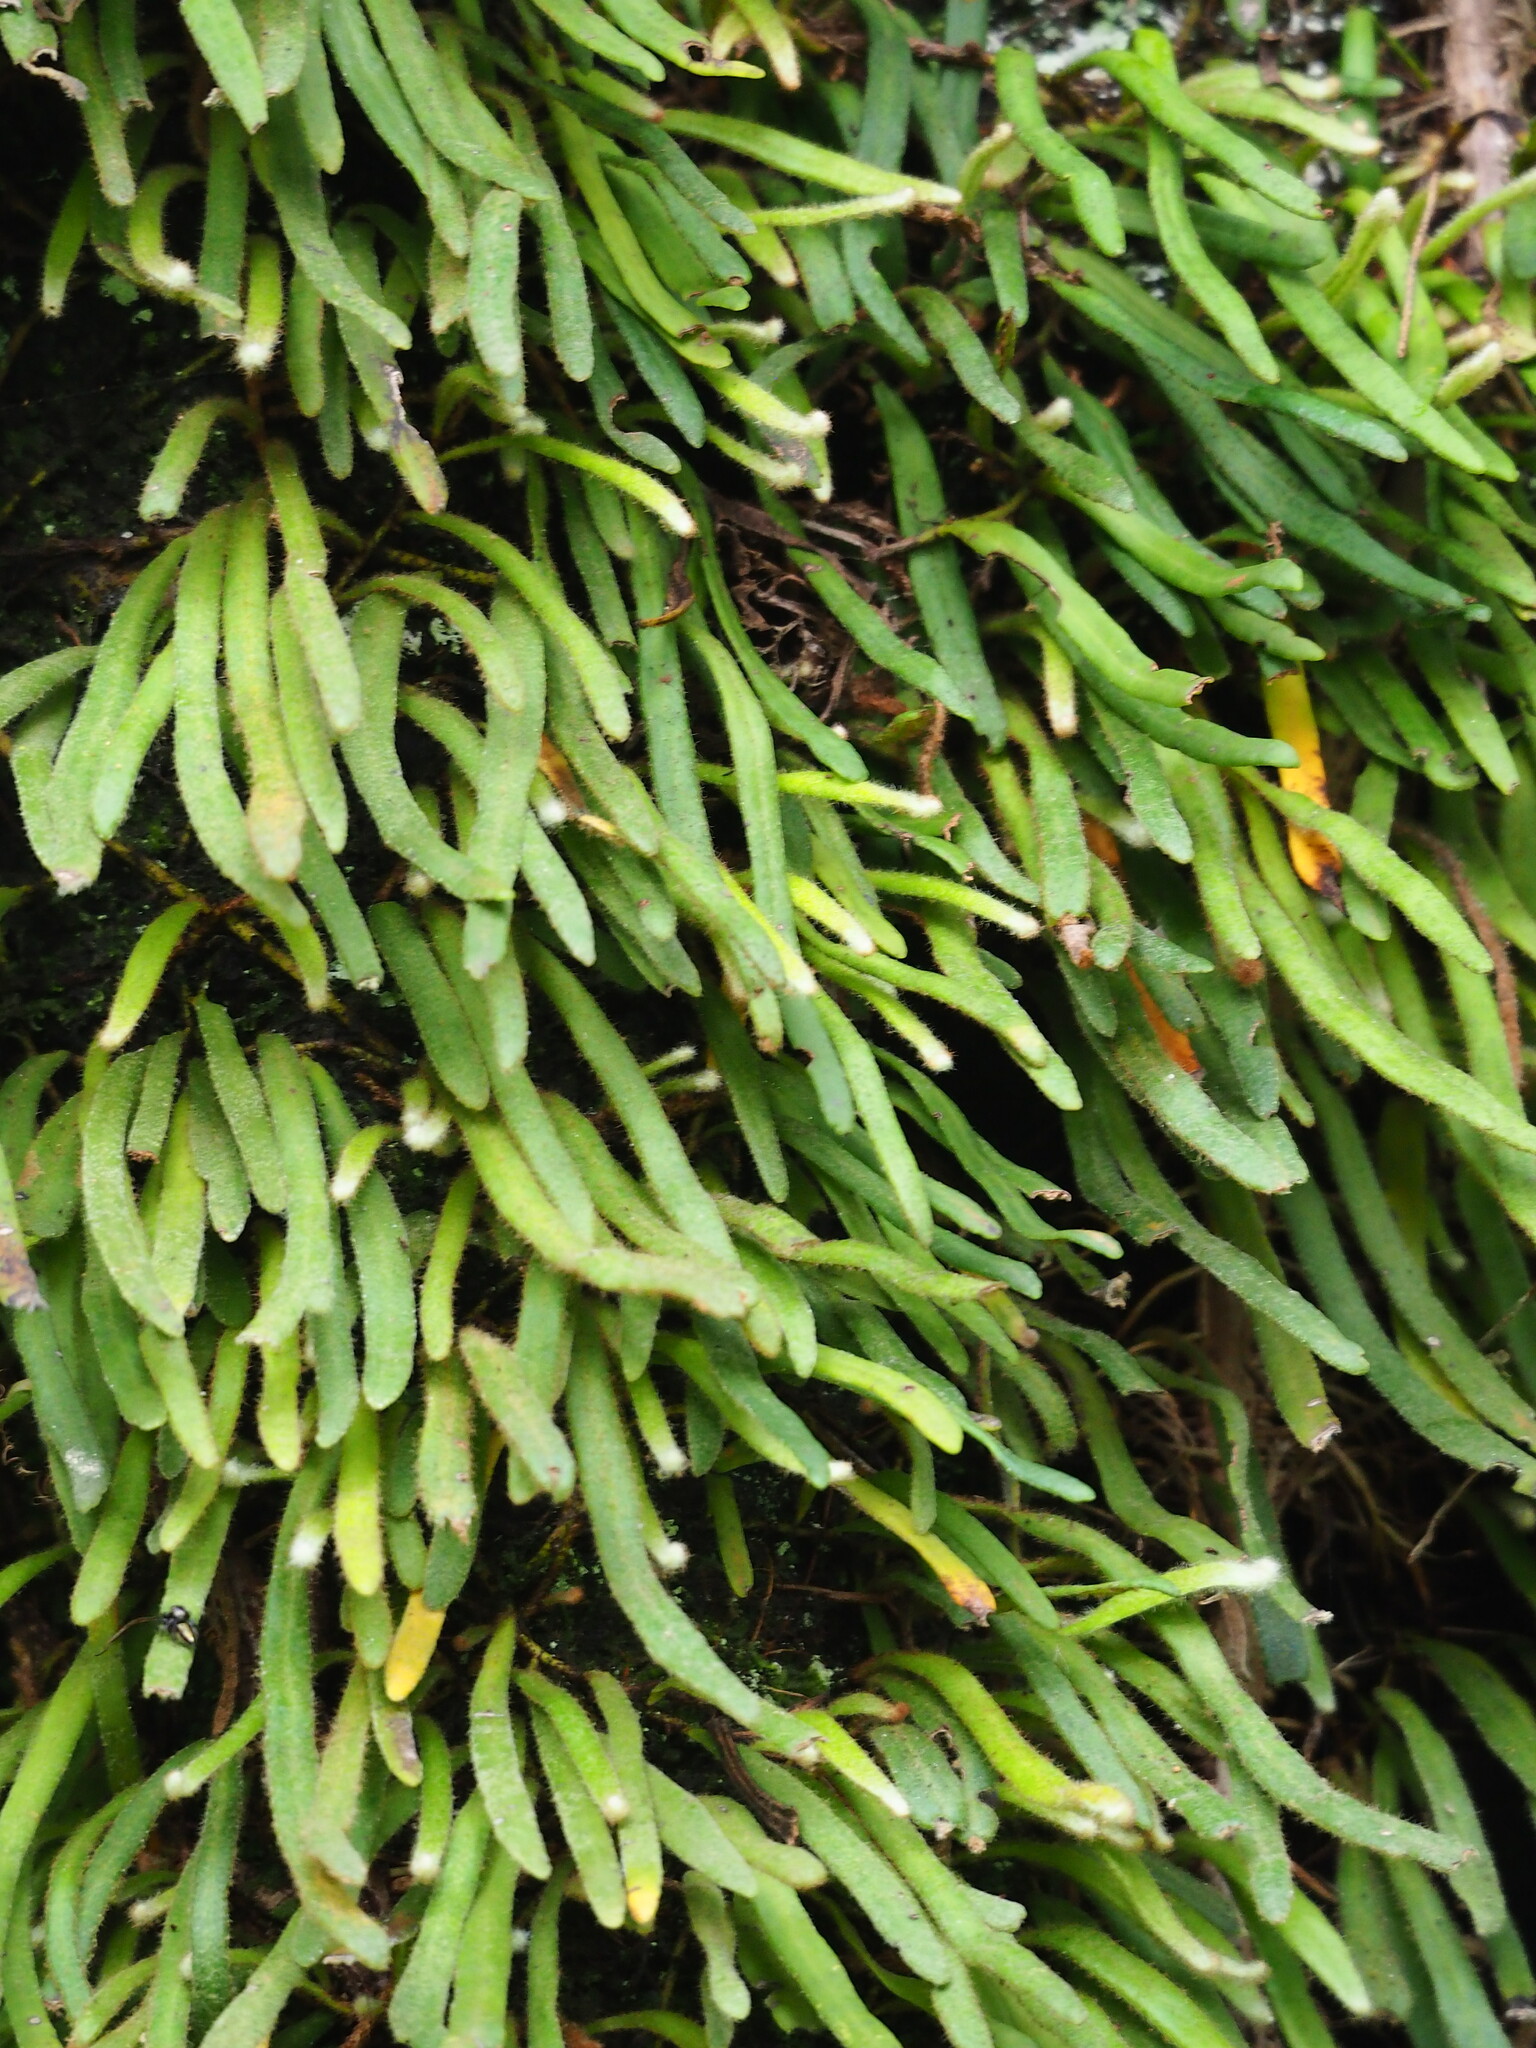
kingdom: Plantae
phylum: Tracheophyta
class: Polypodiopsida
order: Polypodiales
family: Polypodiaceae
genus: Pyrrosia
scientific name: Pyrrosia linearifolia
